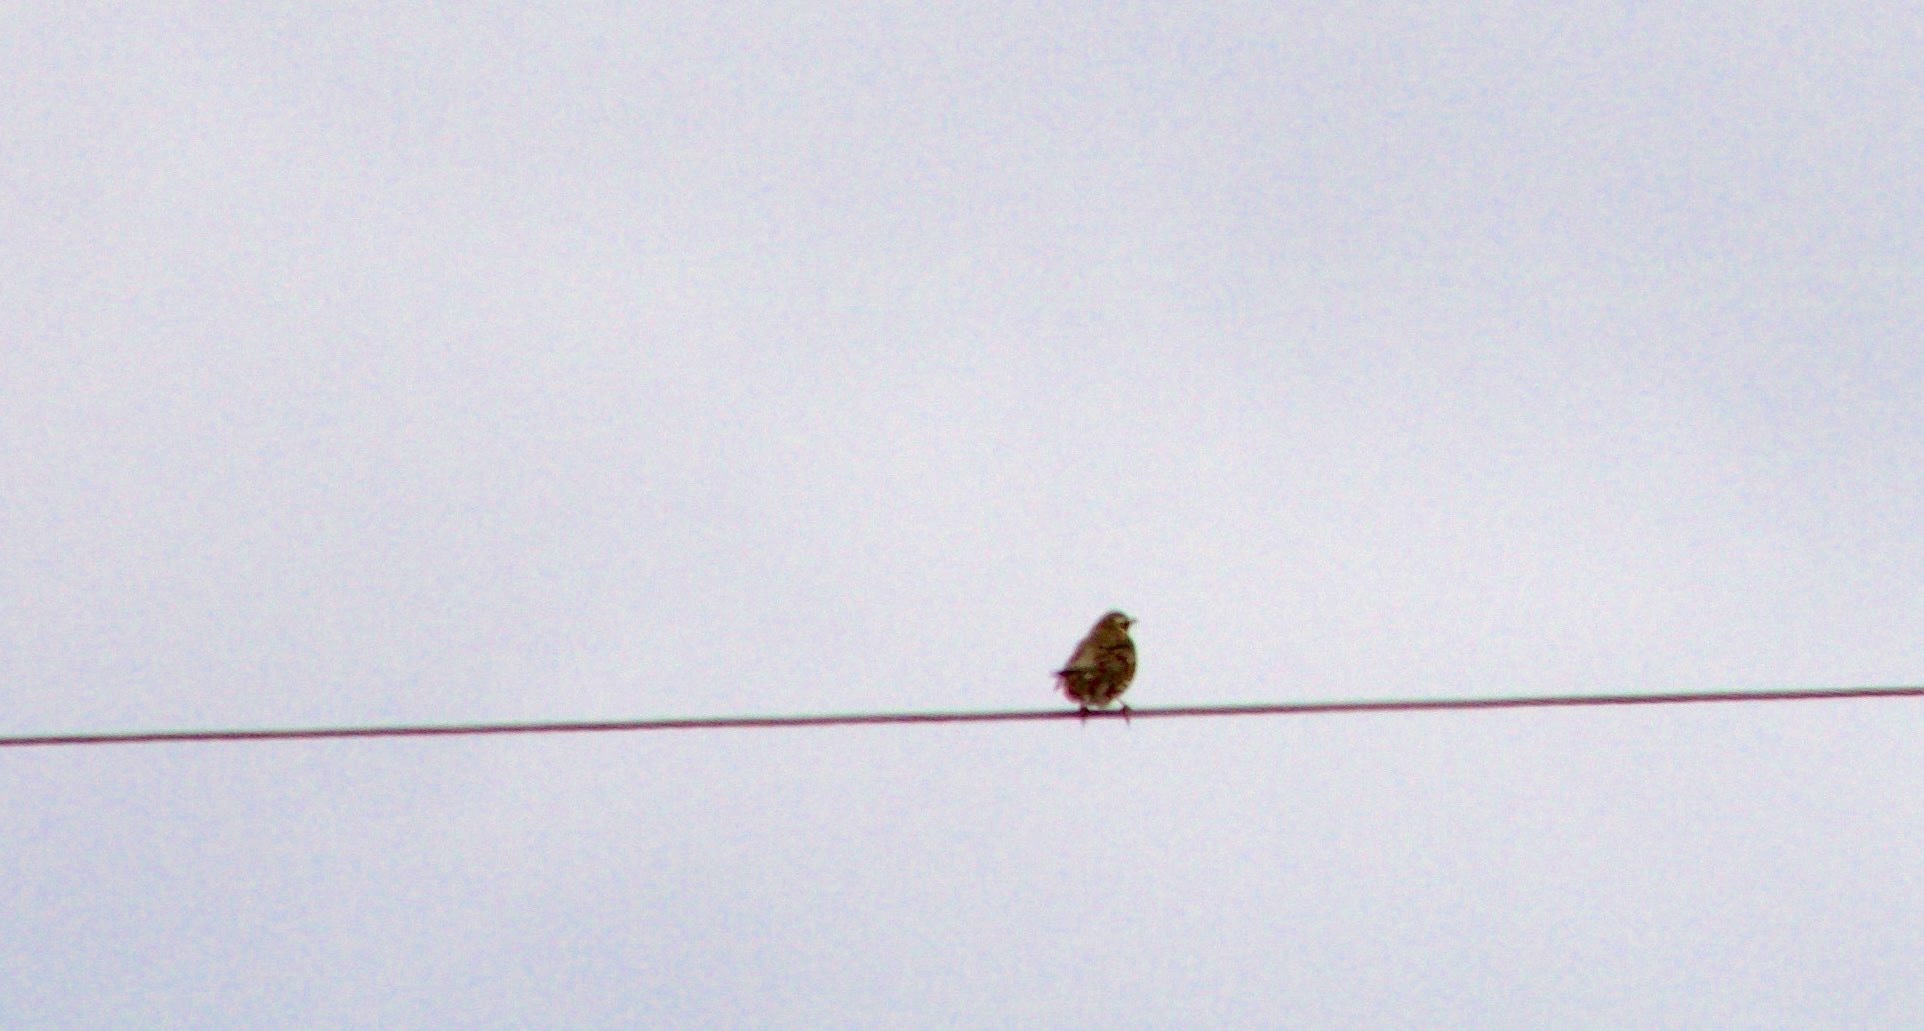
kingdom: Animalia
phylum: Chordata
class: Aves
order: Passeriformes
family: Turdidae
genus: Turdus
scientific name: Turdus iliacus
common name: Redwing
